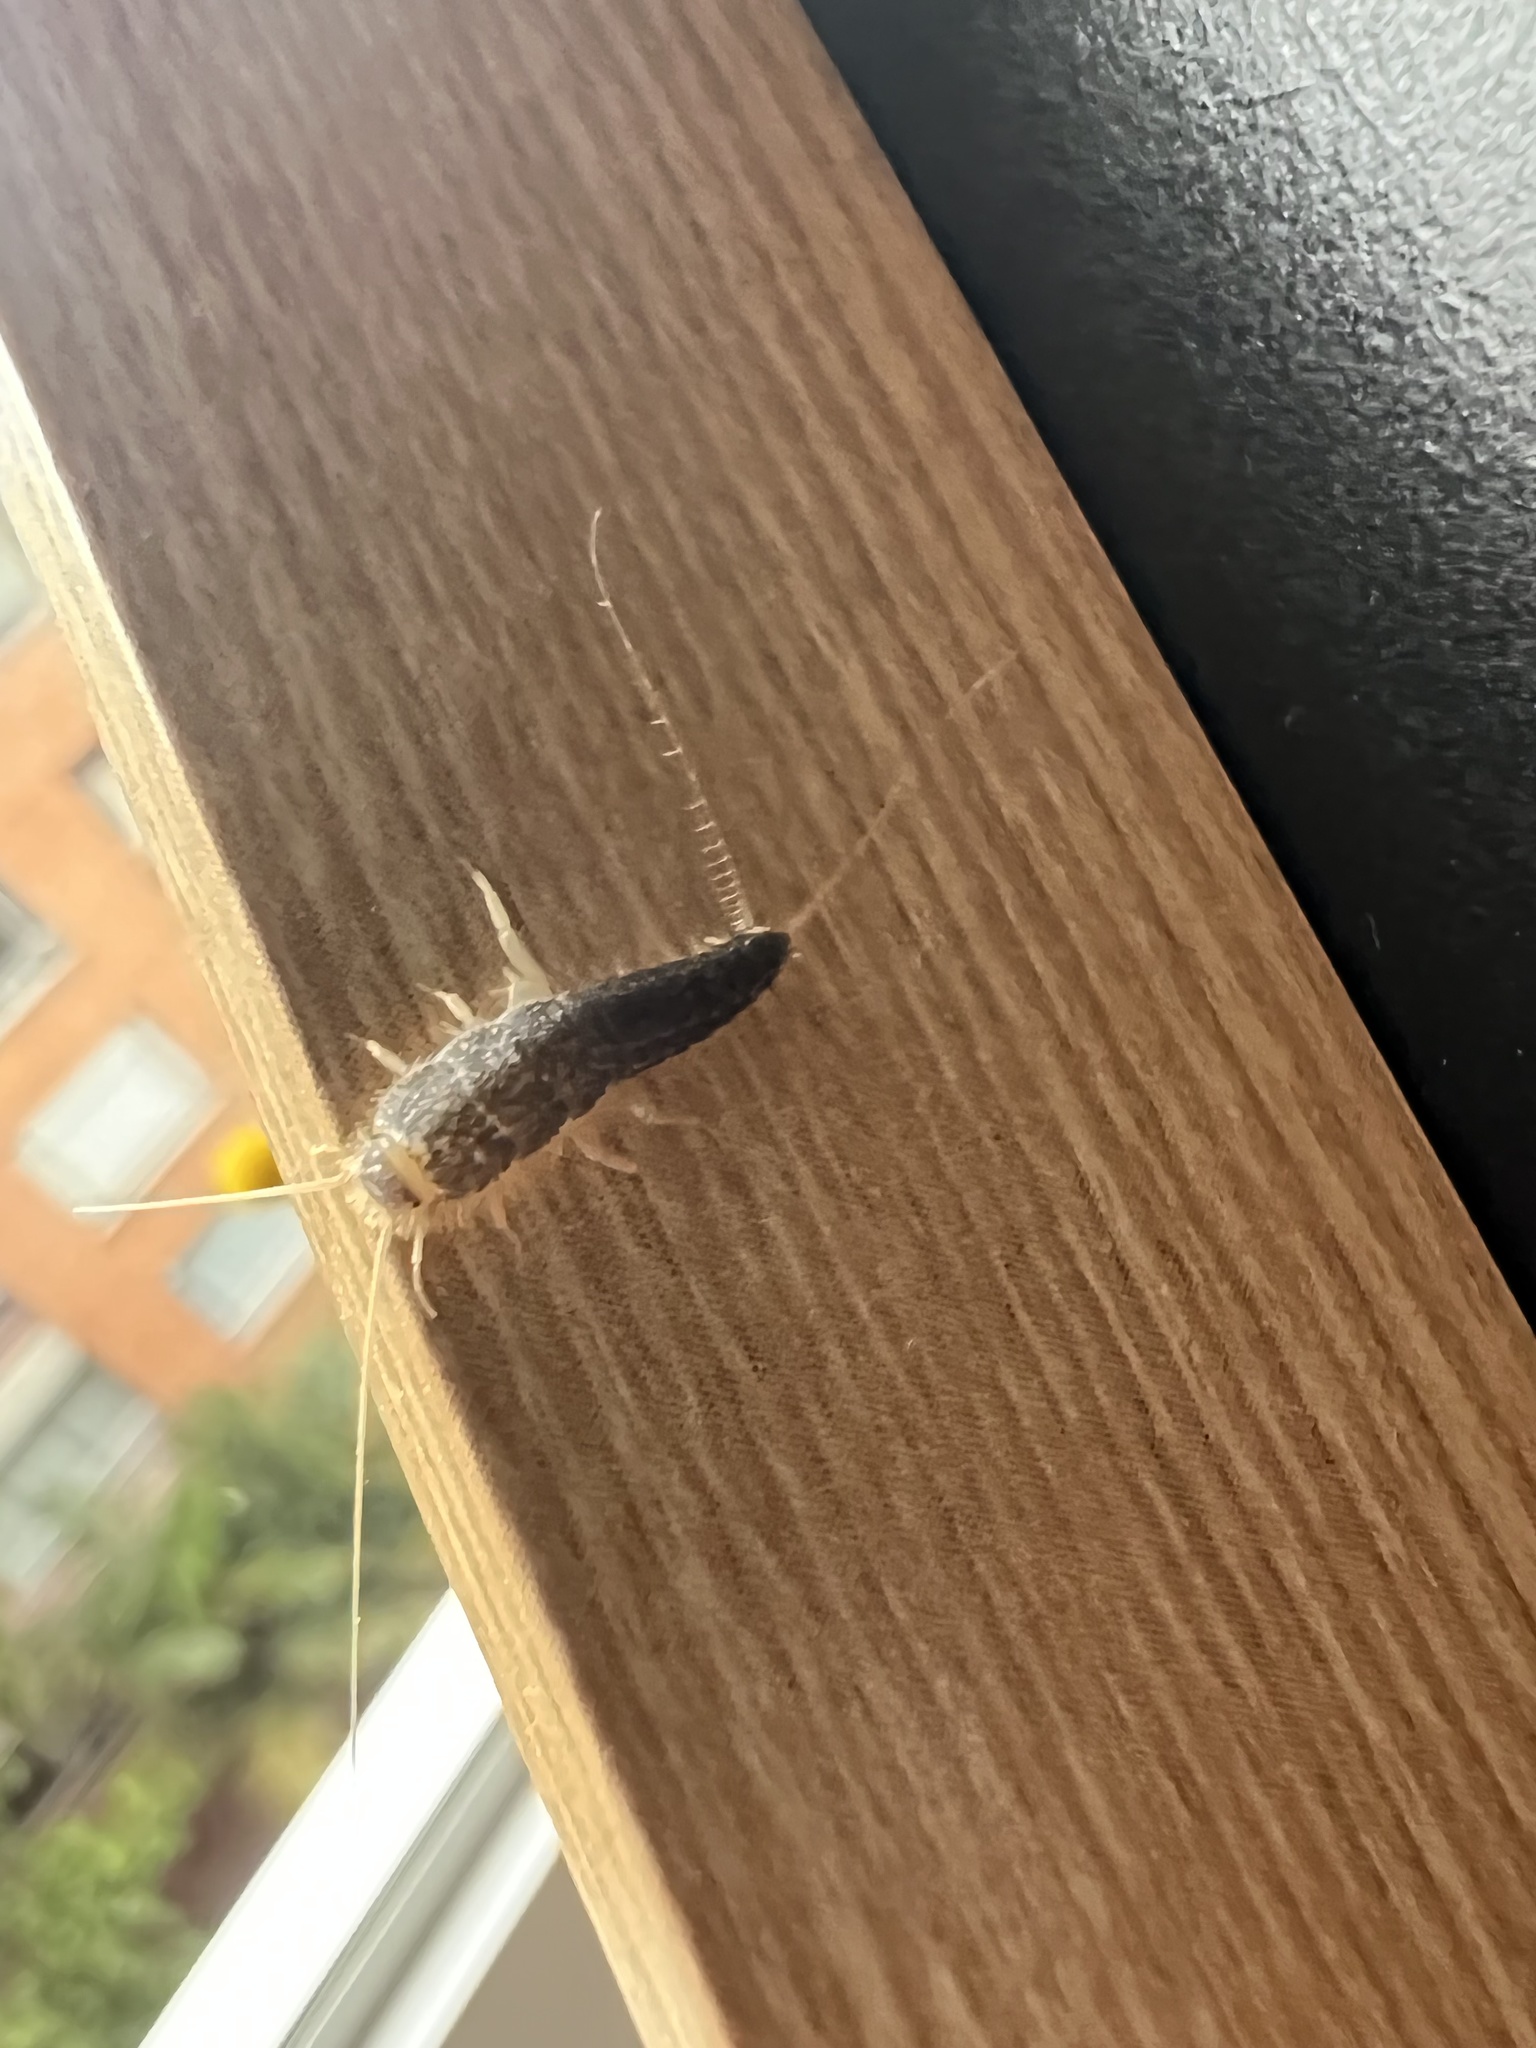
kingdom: Animalia
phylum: Arthropoda
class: Insecta
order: Zygentoma
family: Lepismatidae
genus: Ctenolepisma
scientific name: Ctenolepisma longicaudatum
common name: Silverfish
